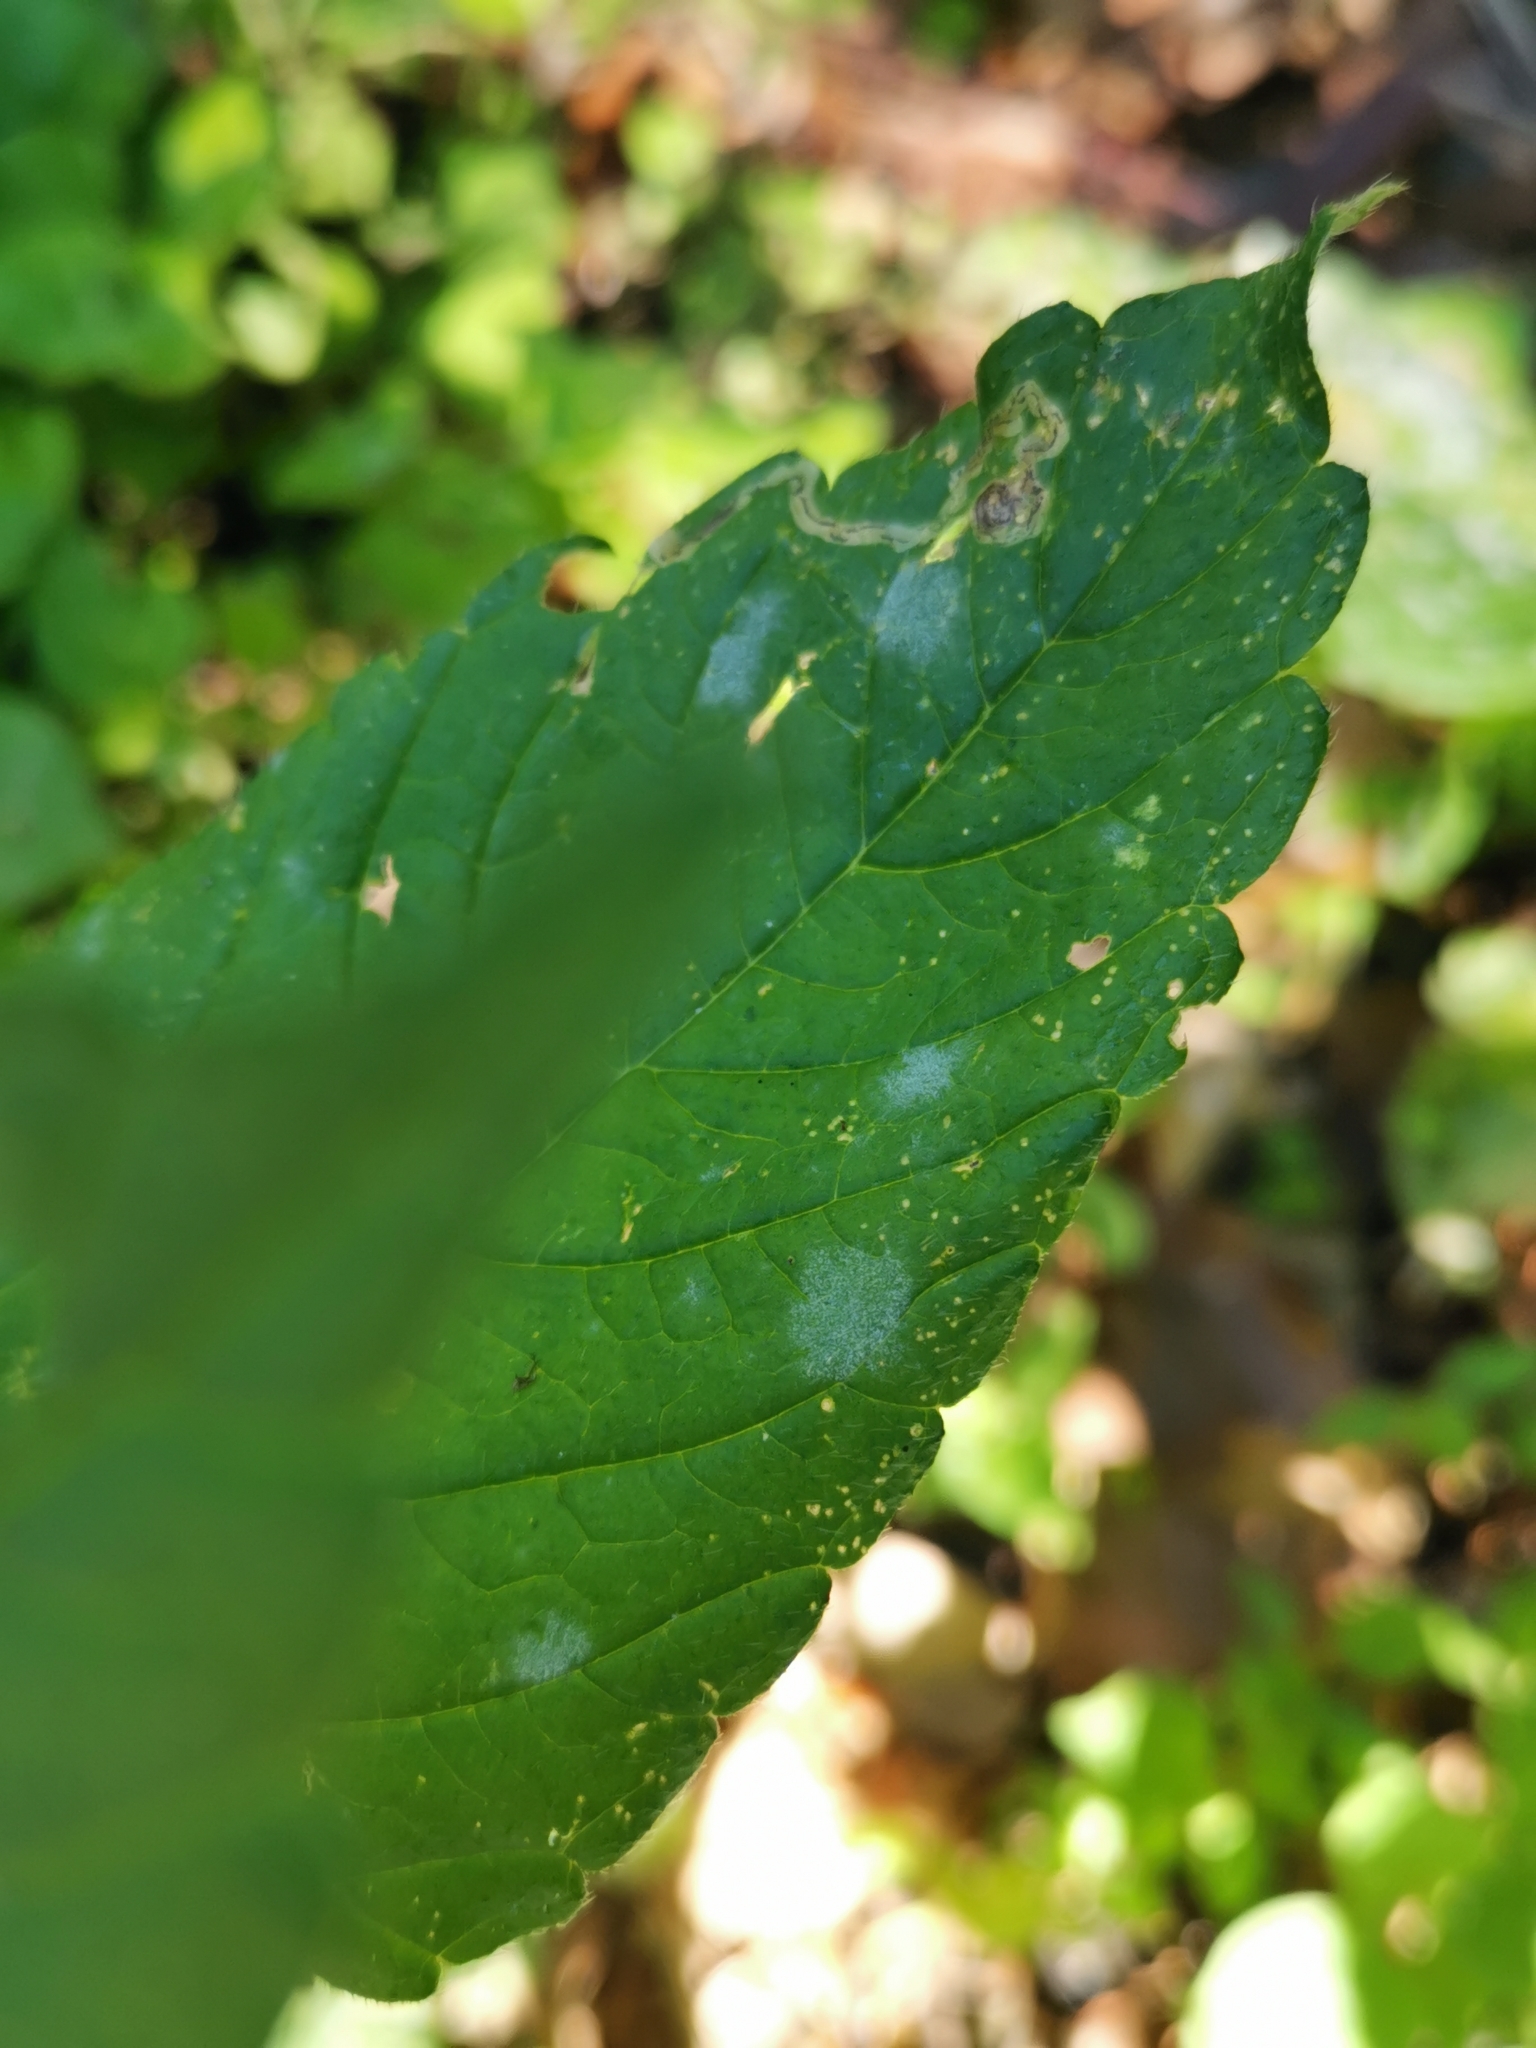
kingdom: Fungi
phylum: Ascomycota
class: Leotiomycetes
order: Helotiales
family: Erysiphaceae
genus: Neoerysiphe
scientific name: Neoerysiphe galeopsidis
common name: Mint mildew
